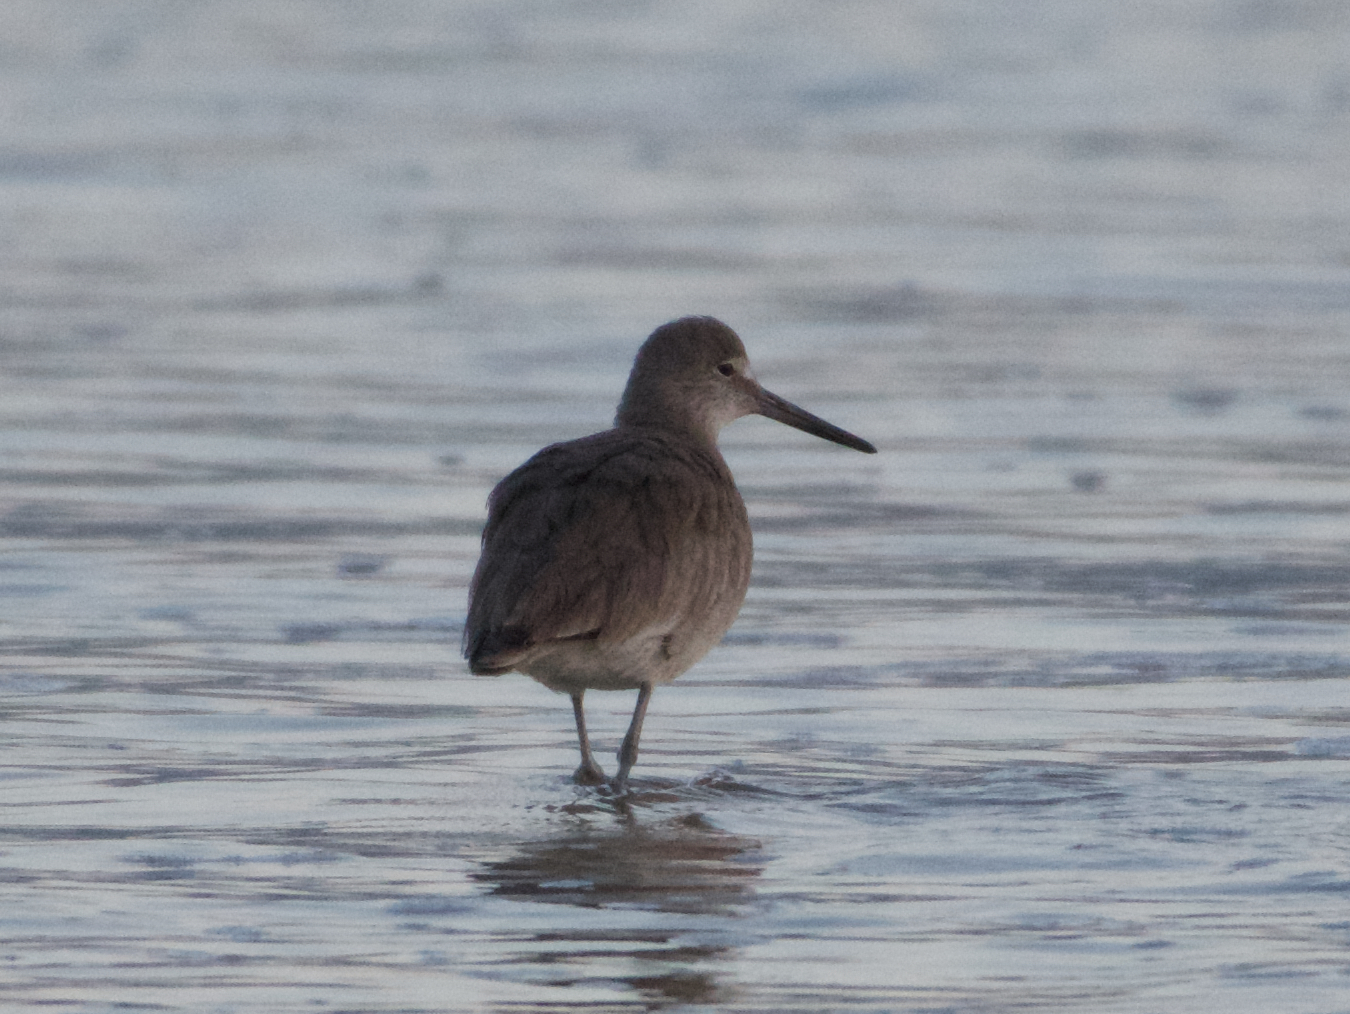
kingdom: Animalia
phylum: Chordata
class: Aves
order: Charadriiformes
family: Scolopacidae
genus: Tringa
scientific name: Tringa semipalmata
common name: Willet
